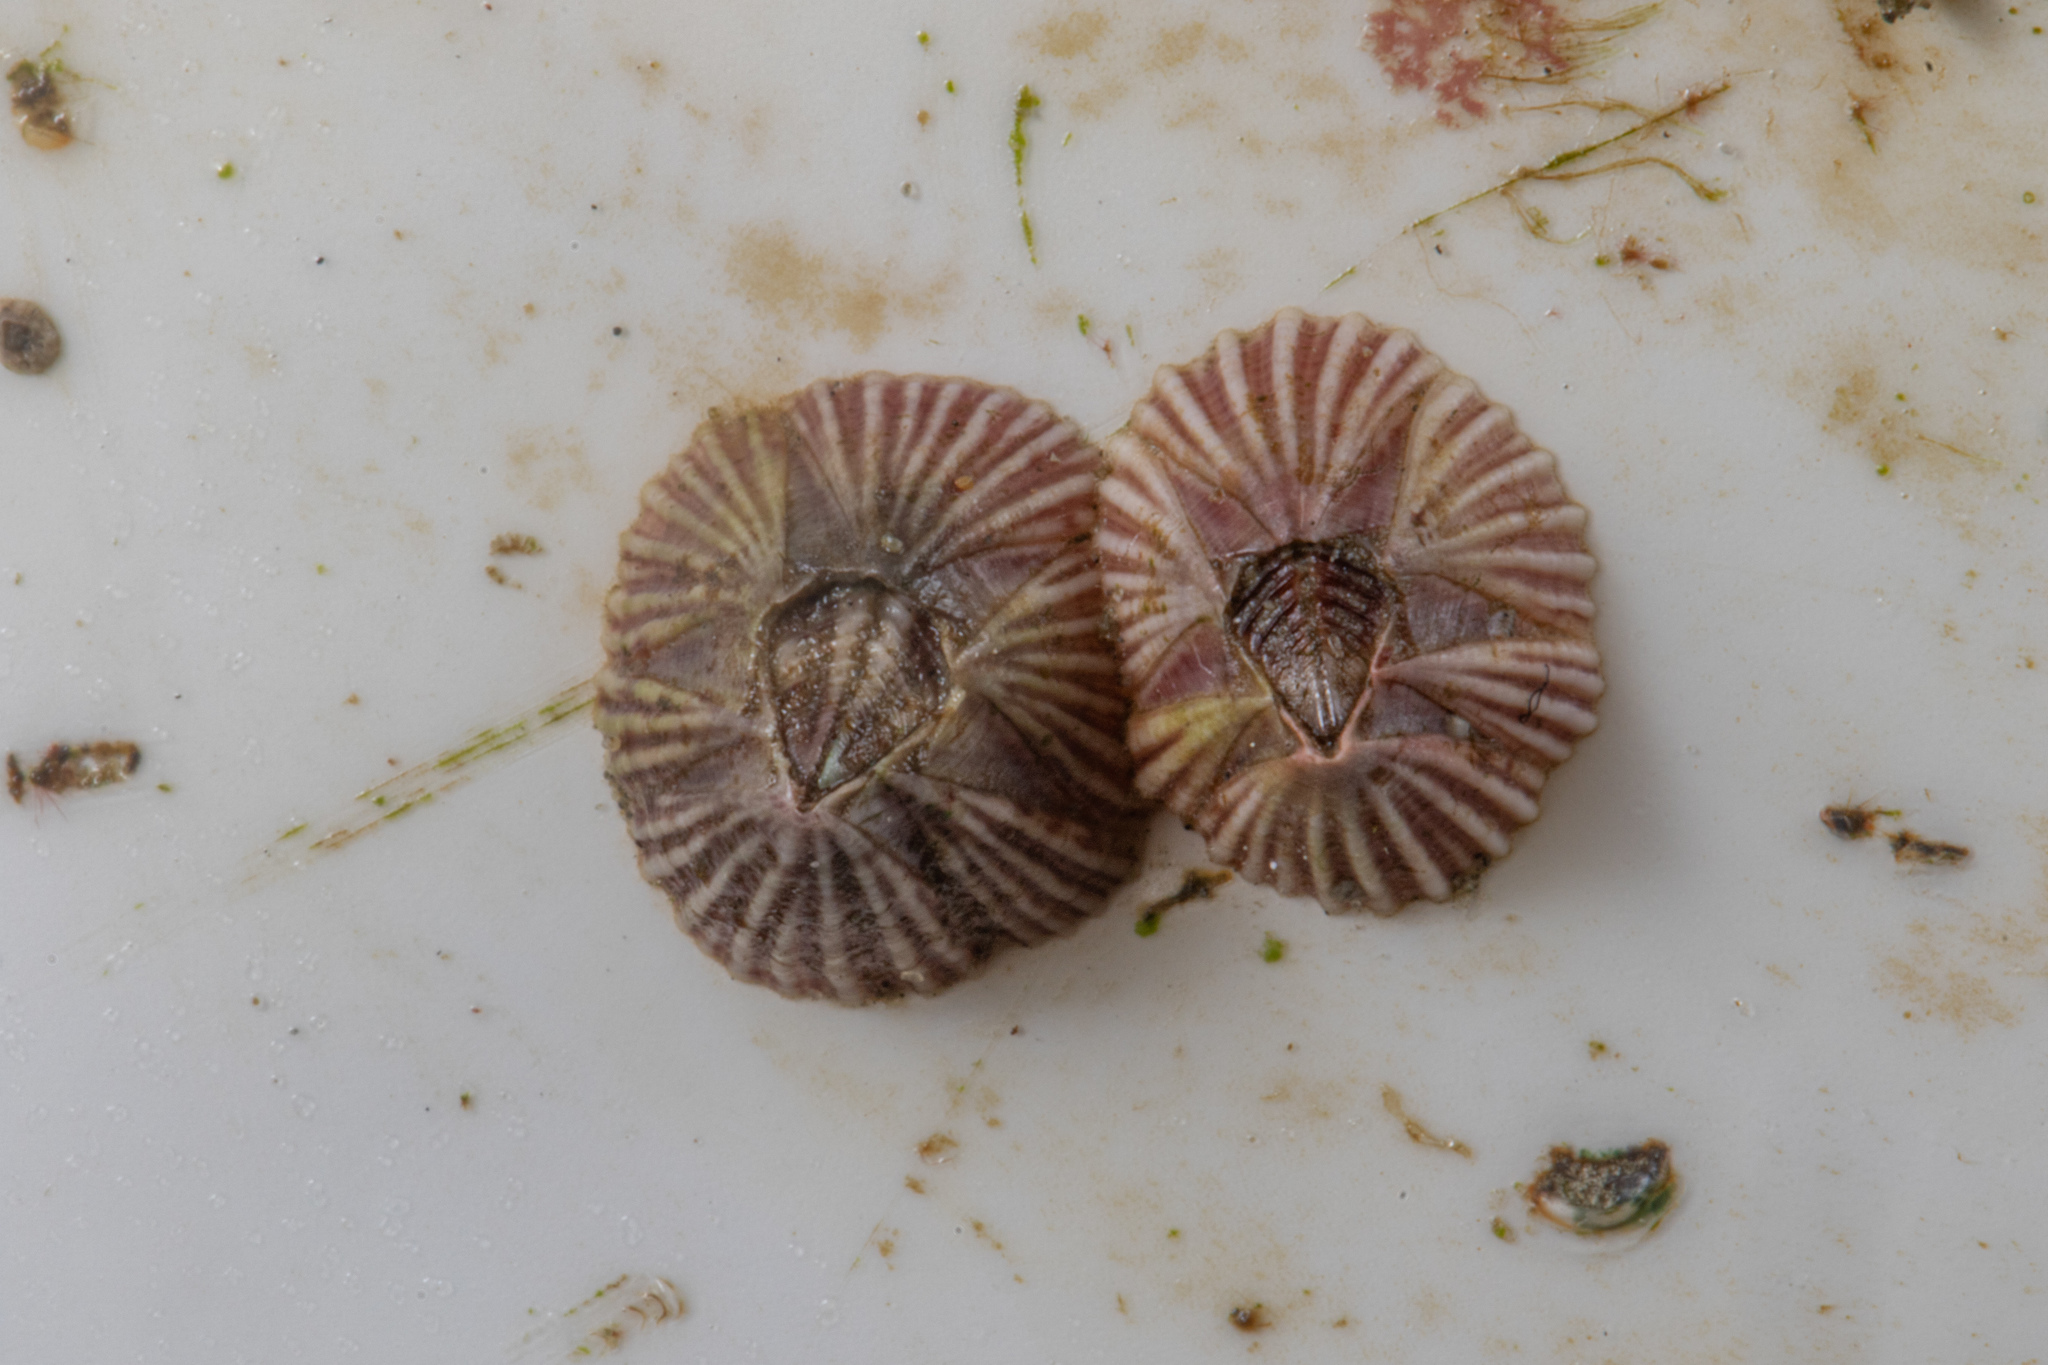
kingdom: Animalia
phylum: Arthropoda
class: Maxillopoda
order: Sessilia
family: Balanidae
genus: Balanus
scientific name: Balanus trigonus
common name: Triangle barnacle
